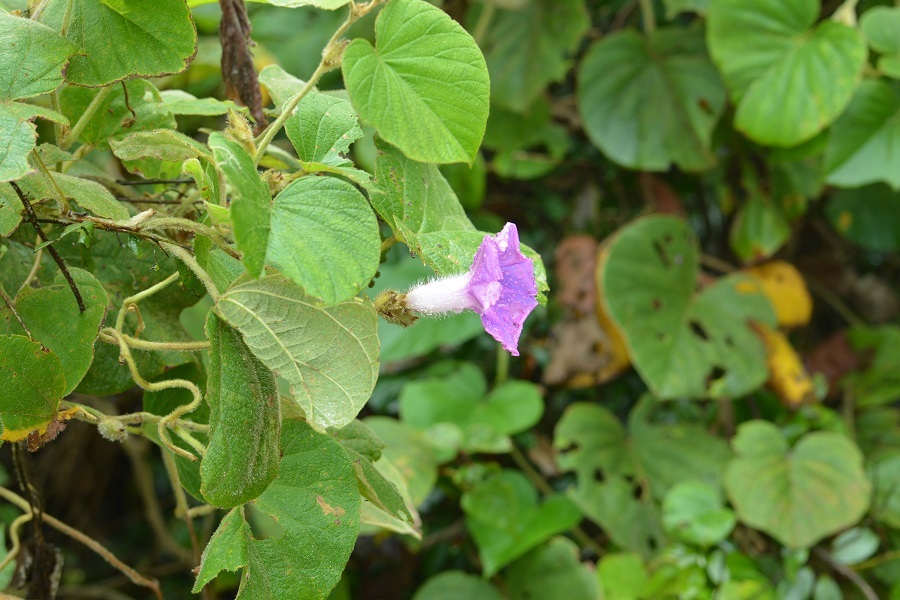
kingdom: Plantae
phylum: Tracheophyta
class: Magnoliopsida
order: Solanales
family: Convolvulaceae
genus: Ipomoea
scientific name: Ipomoea villifera
